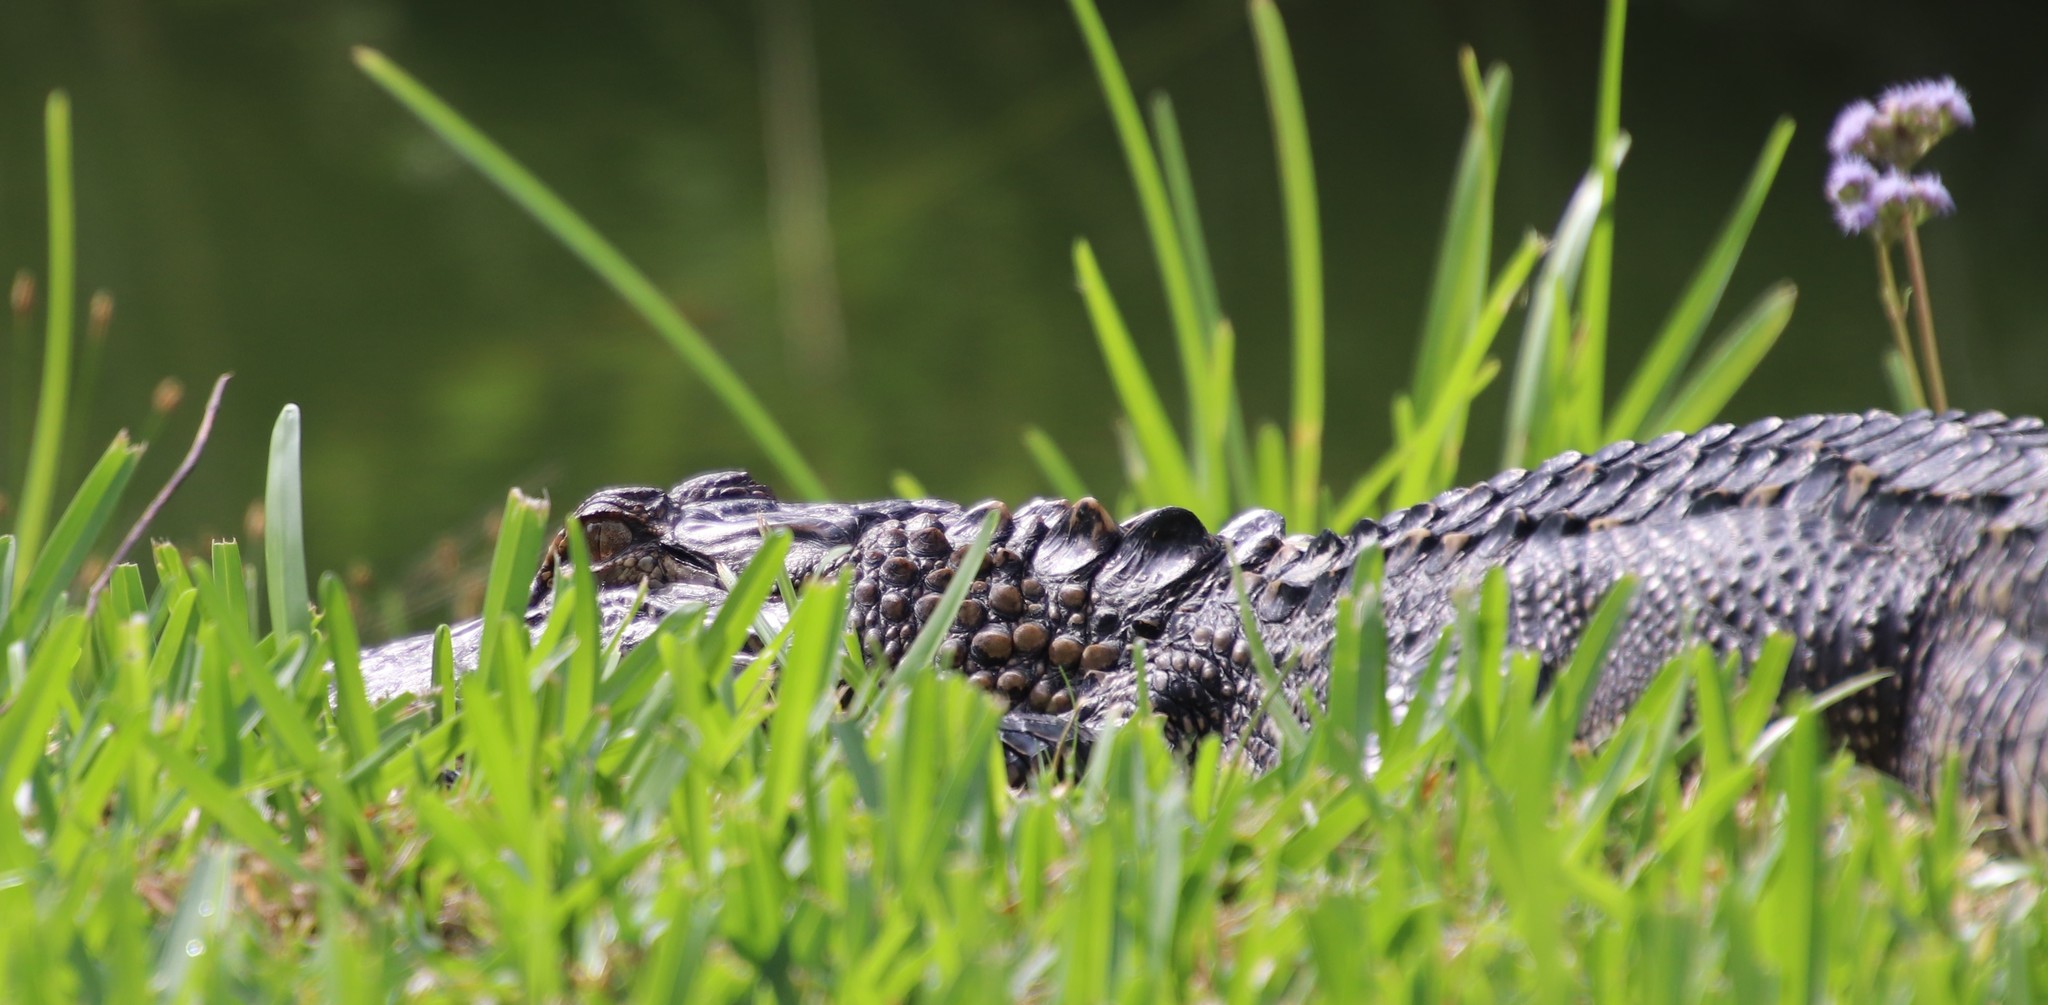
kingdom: Animalia
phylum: Chordata
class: Crocodylia
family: Alligatoridae
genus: Alligator
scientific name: Alligator mississippiensis
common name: American alligator
